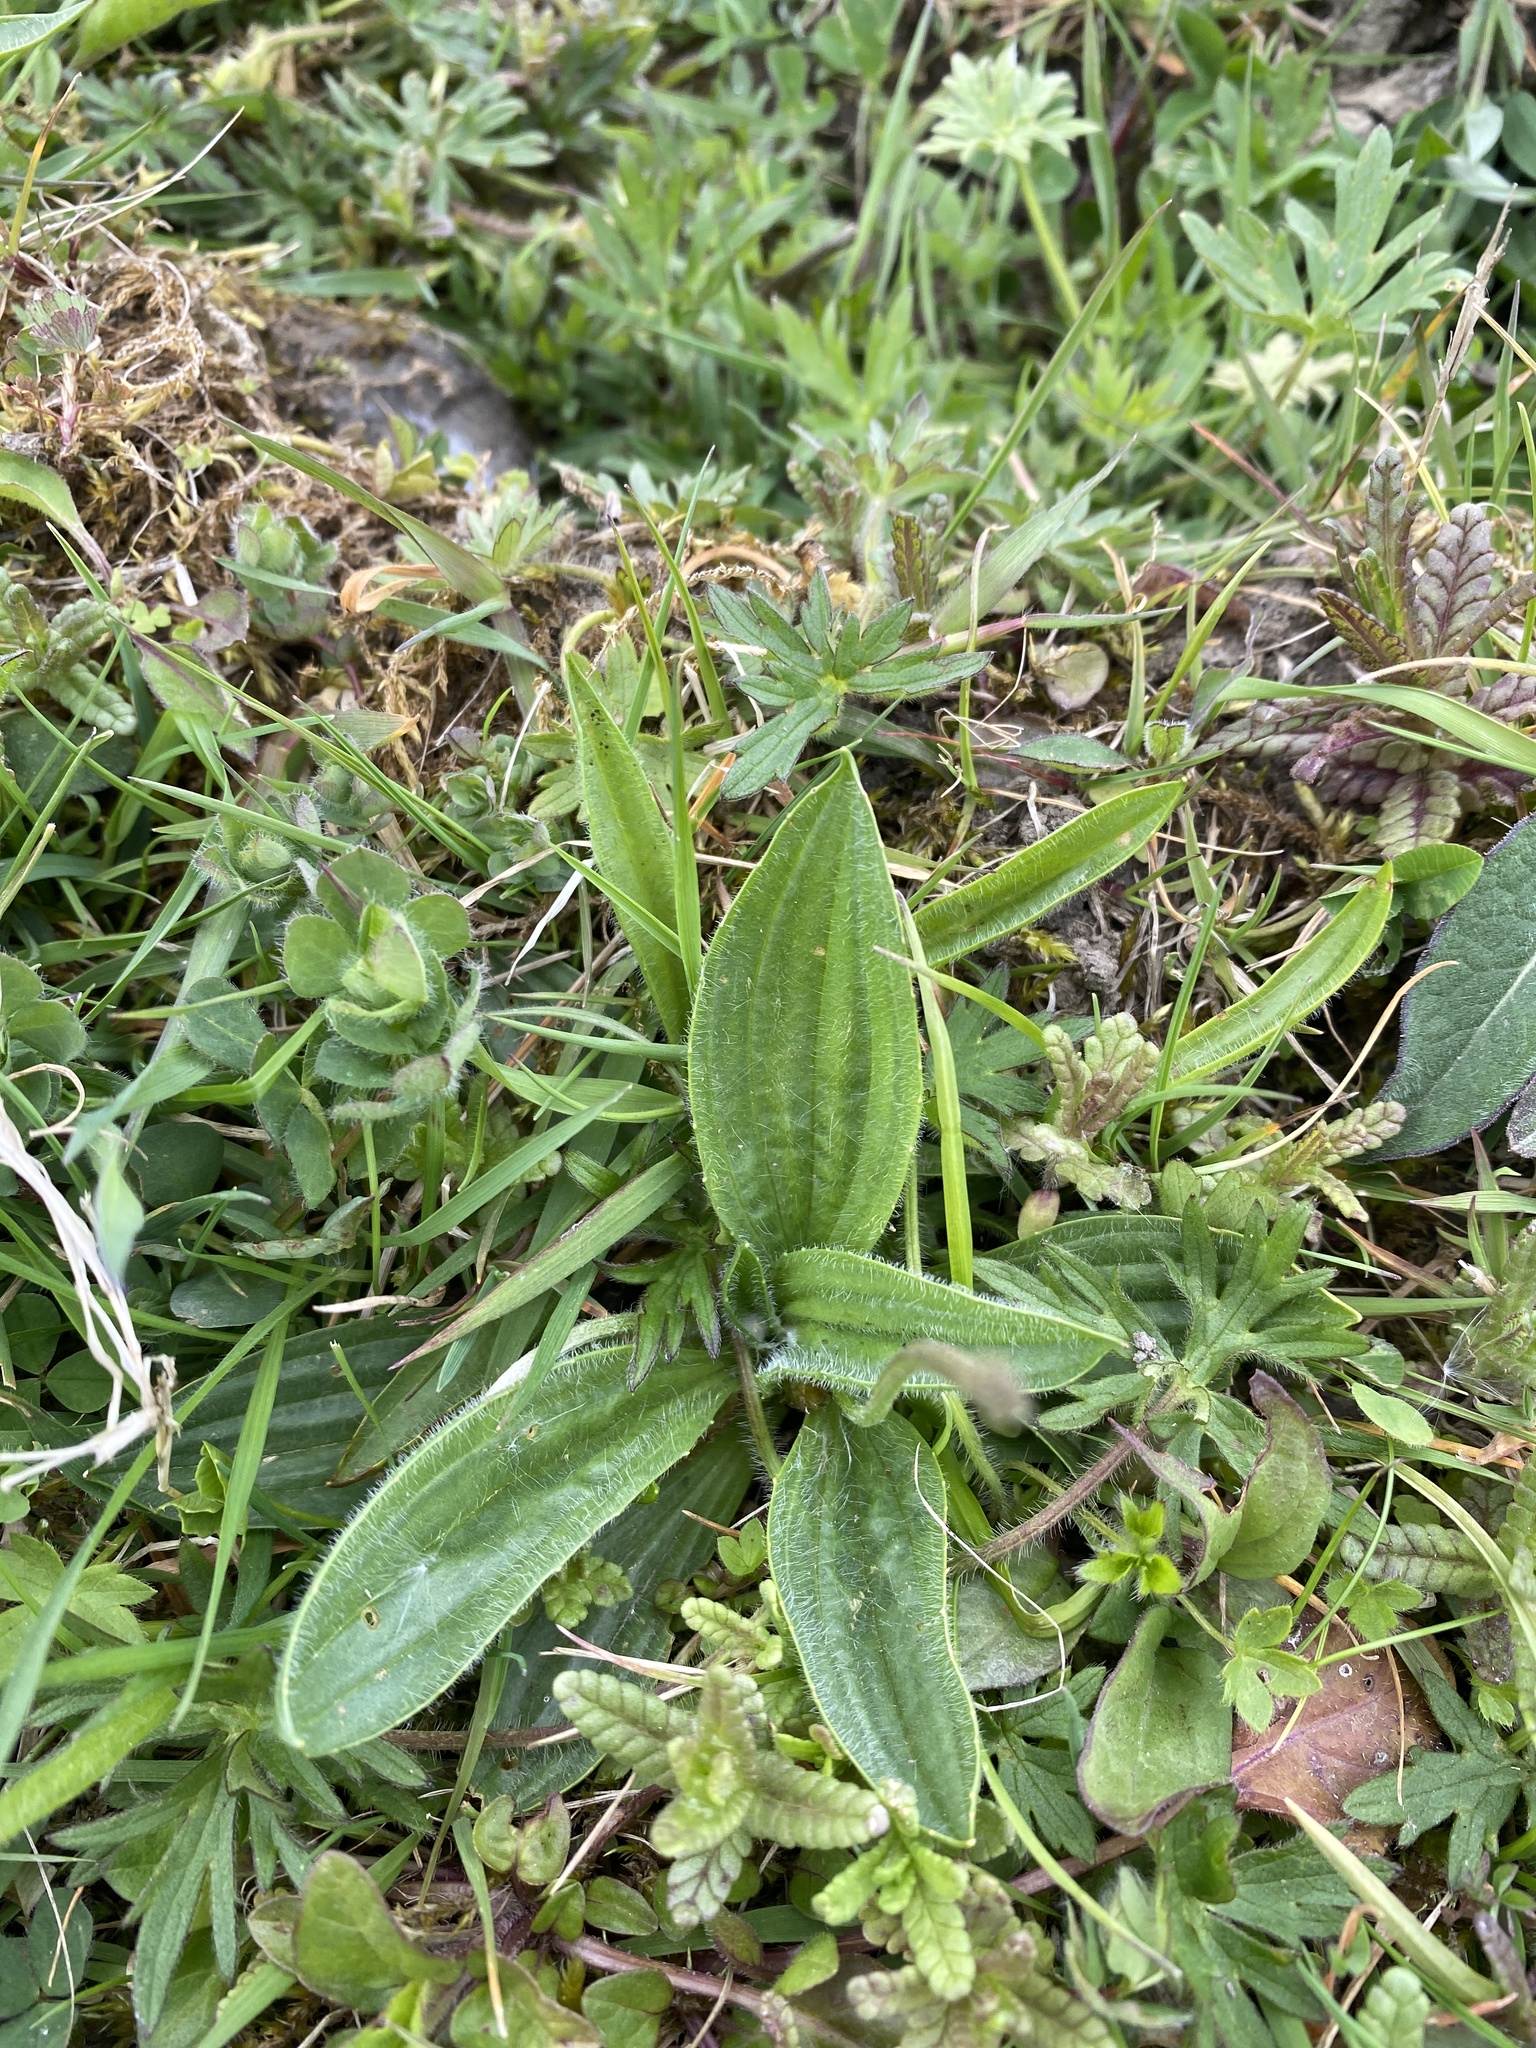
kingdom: Plantae
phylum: Tracheophyta
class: Magnoliopsida
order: Lamiales
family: Plantaginaceae
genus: Plantago
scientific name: Plantago lanceolata
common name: Ribwort plantain
